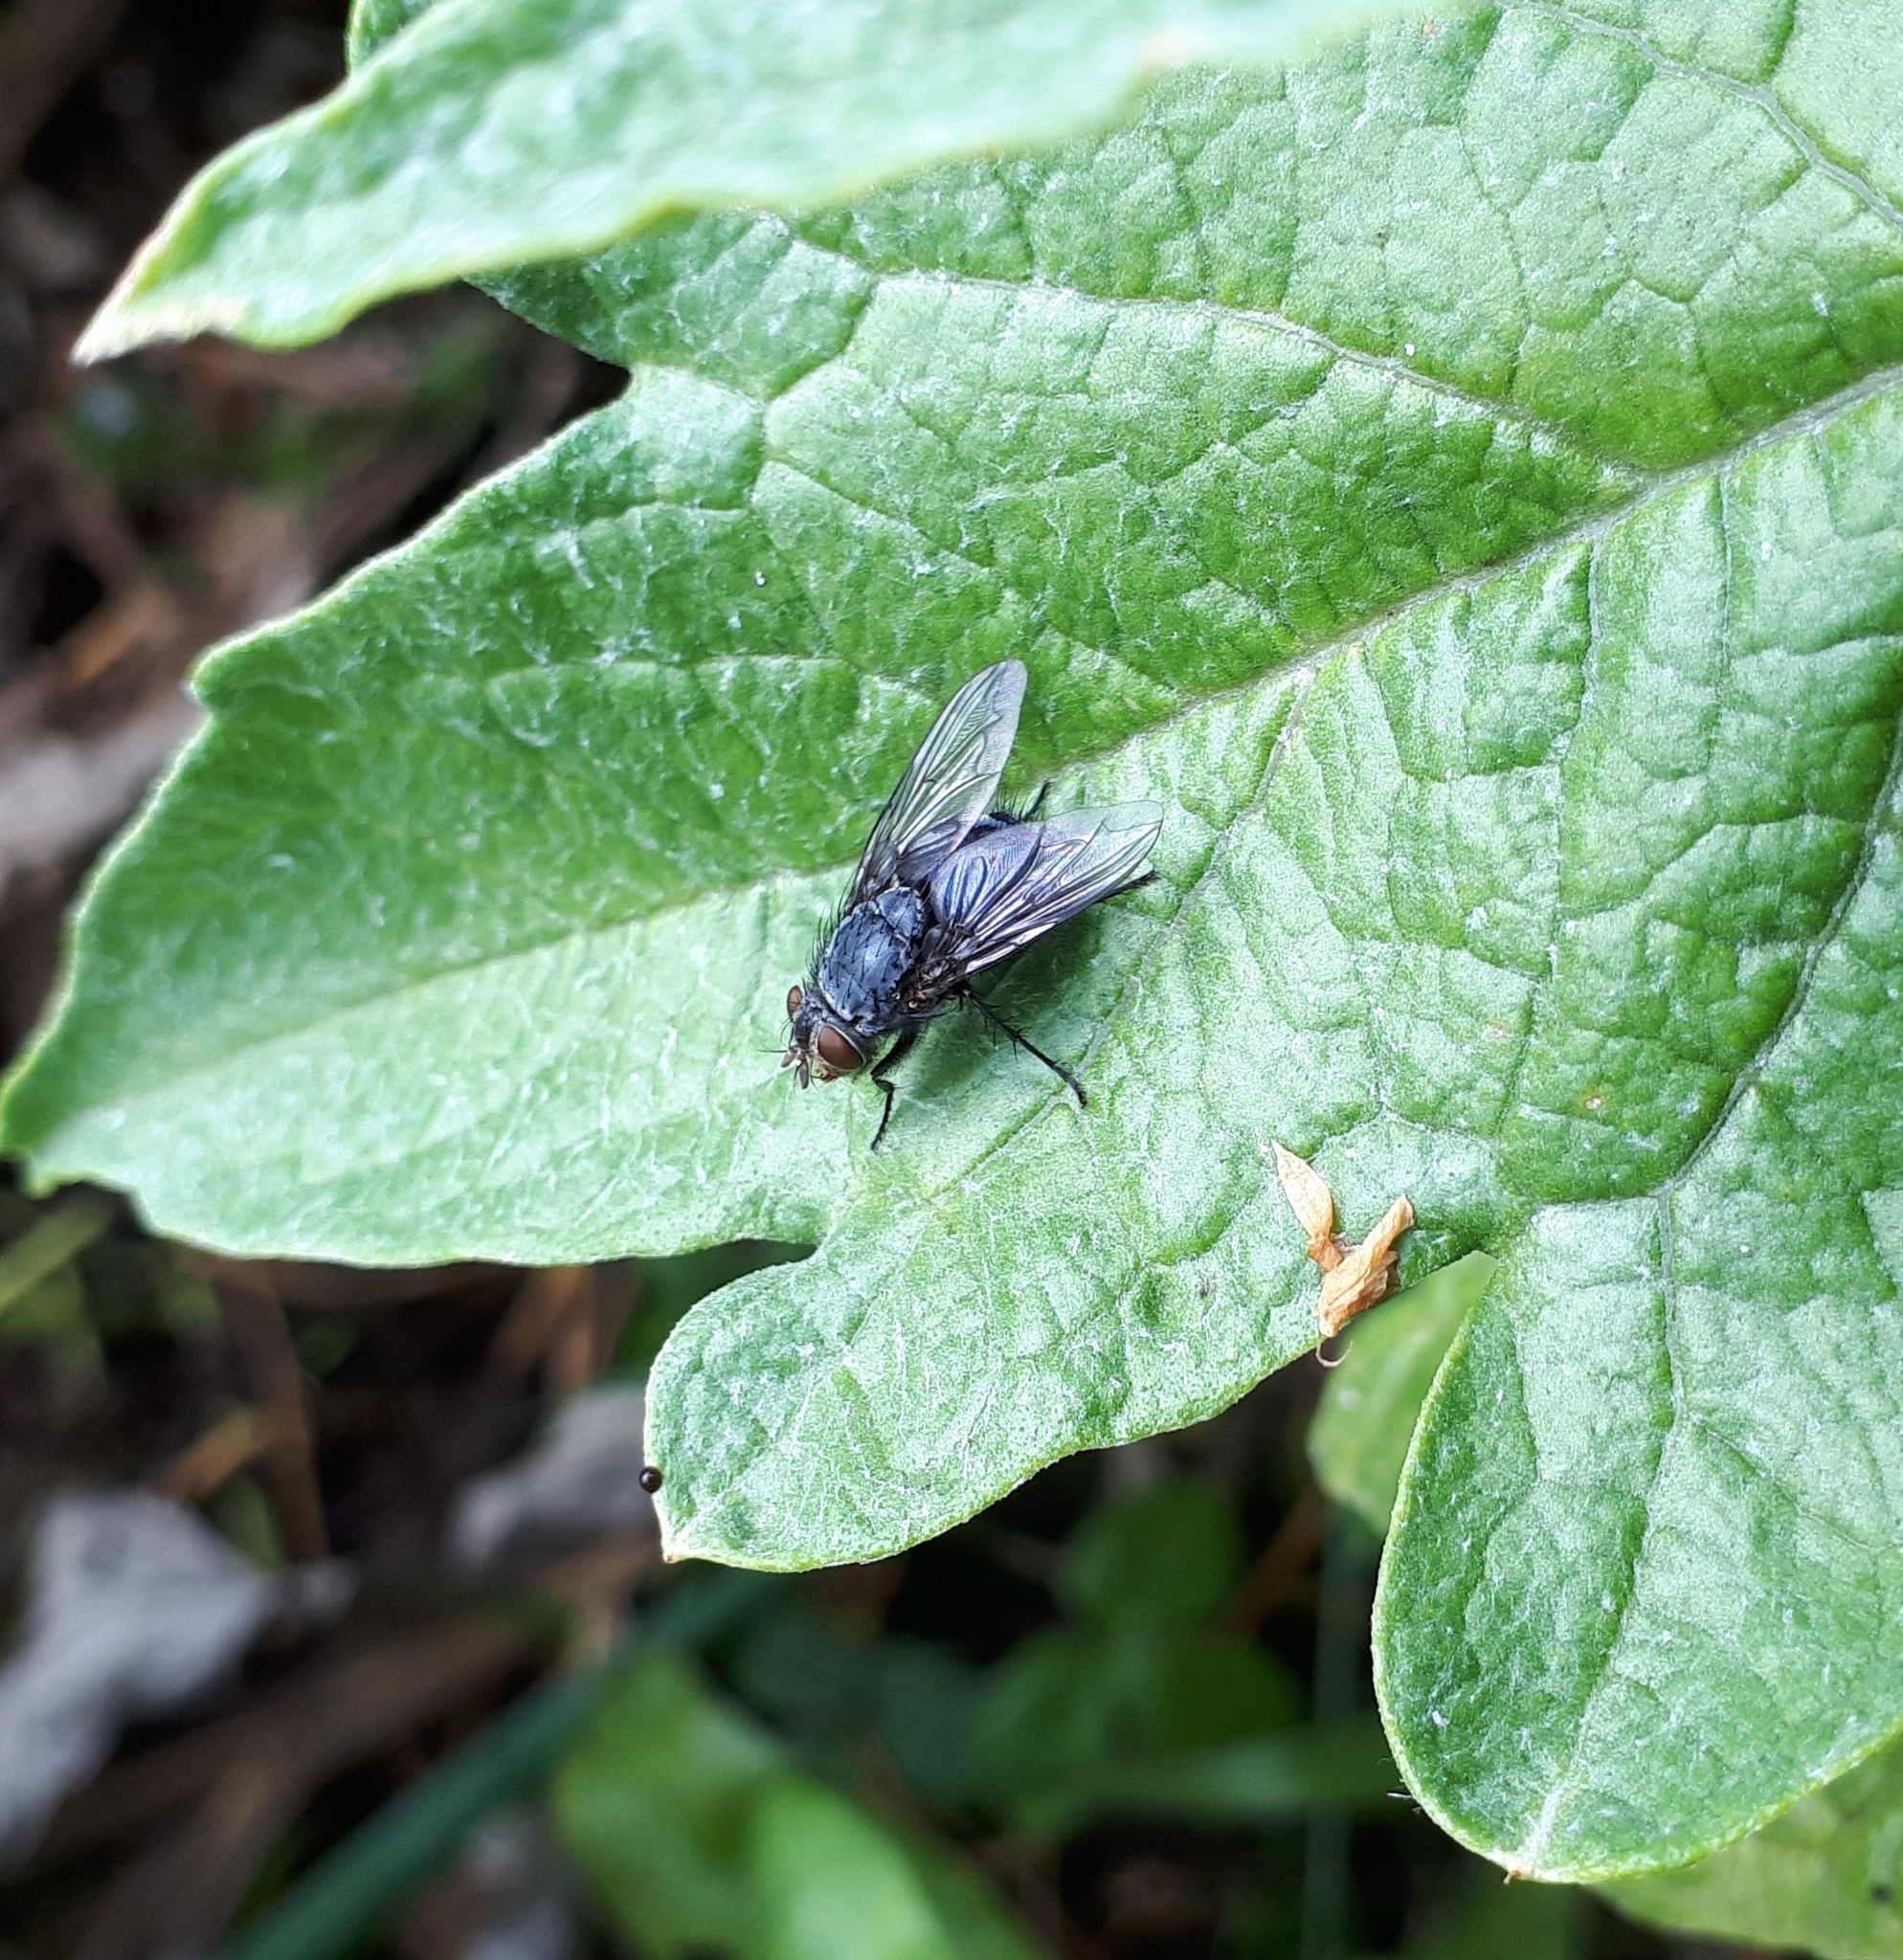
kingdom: Animalia
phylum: Arthropoda
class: Insecta
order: Diptera
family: Calliphoridae
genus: Calliphora
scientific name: Calliphora vicina
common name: Common blow flie
